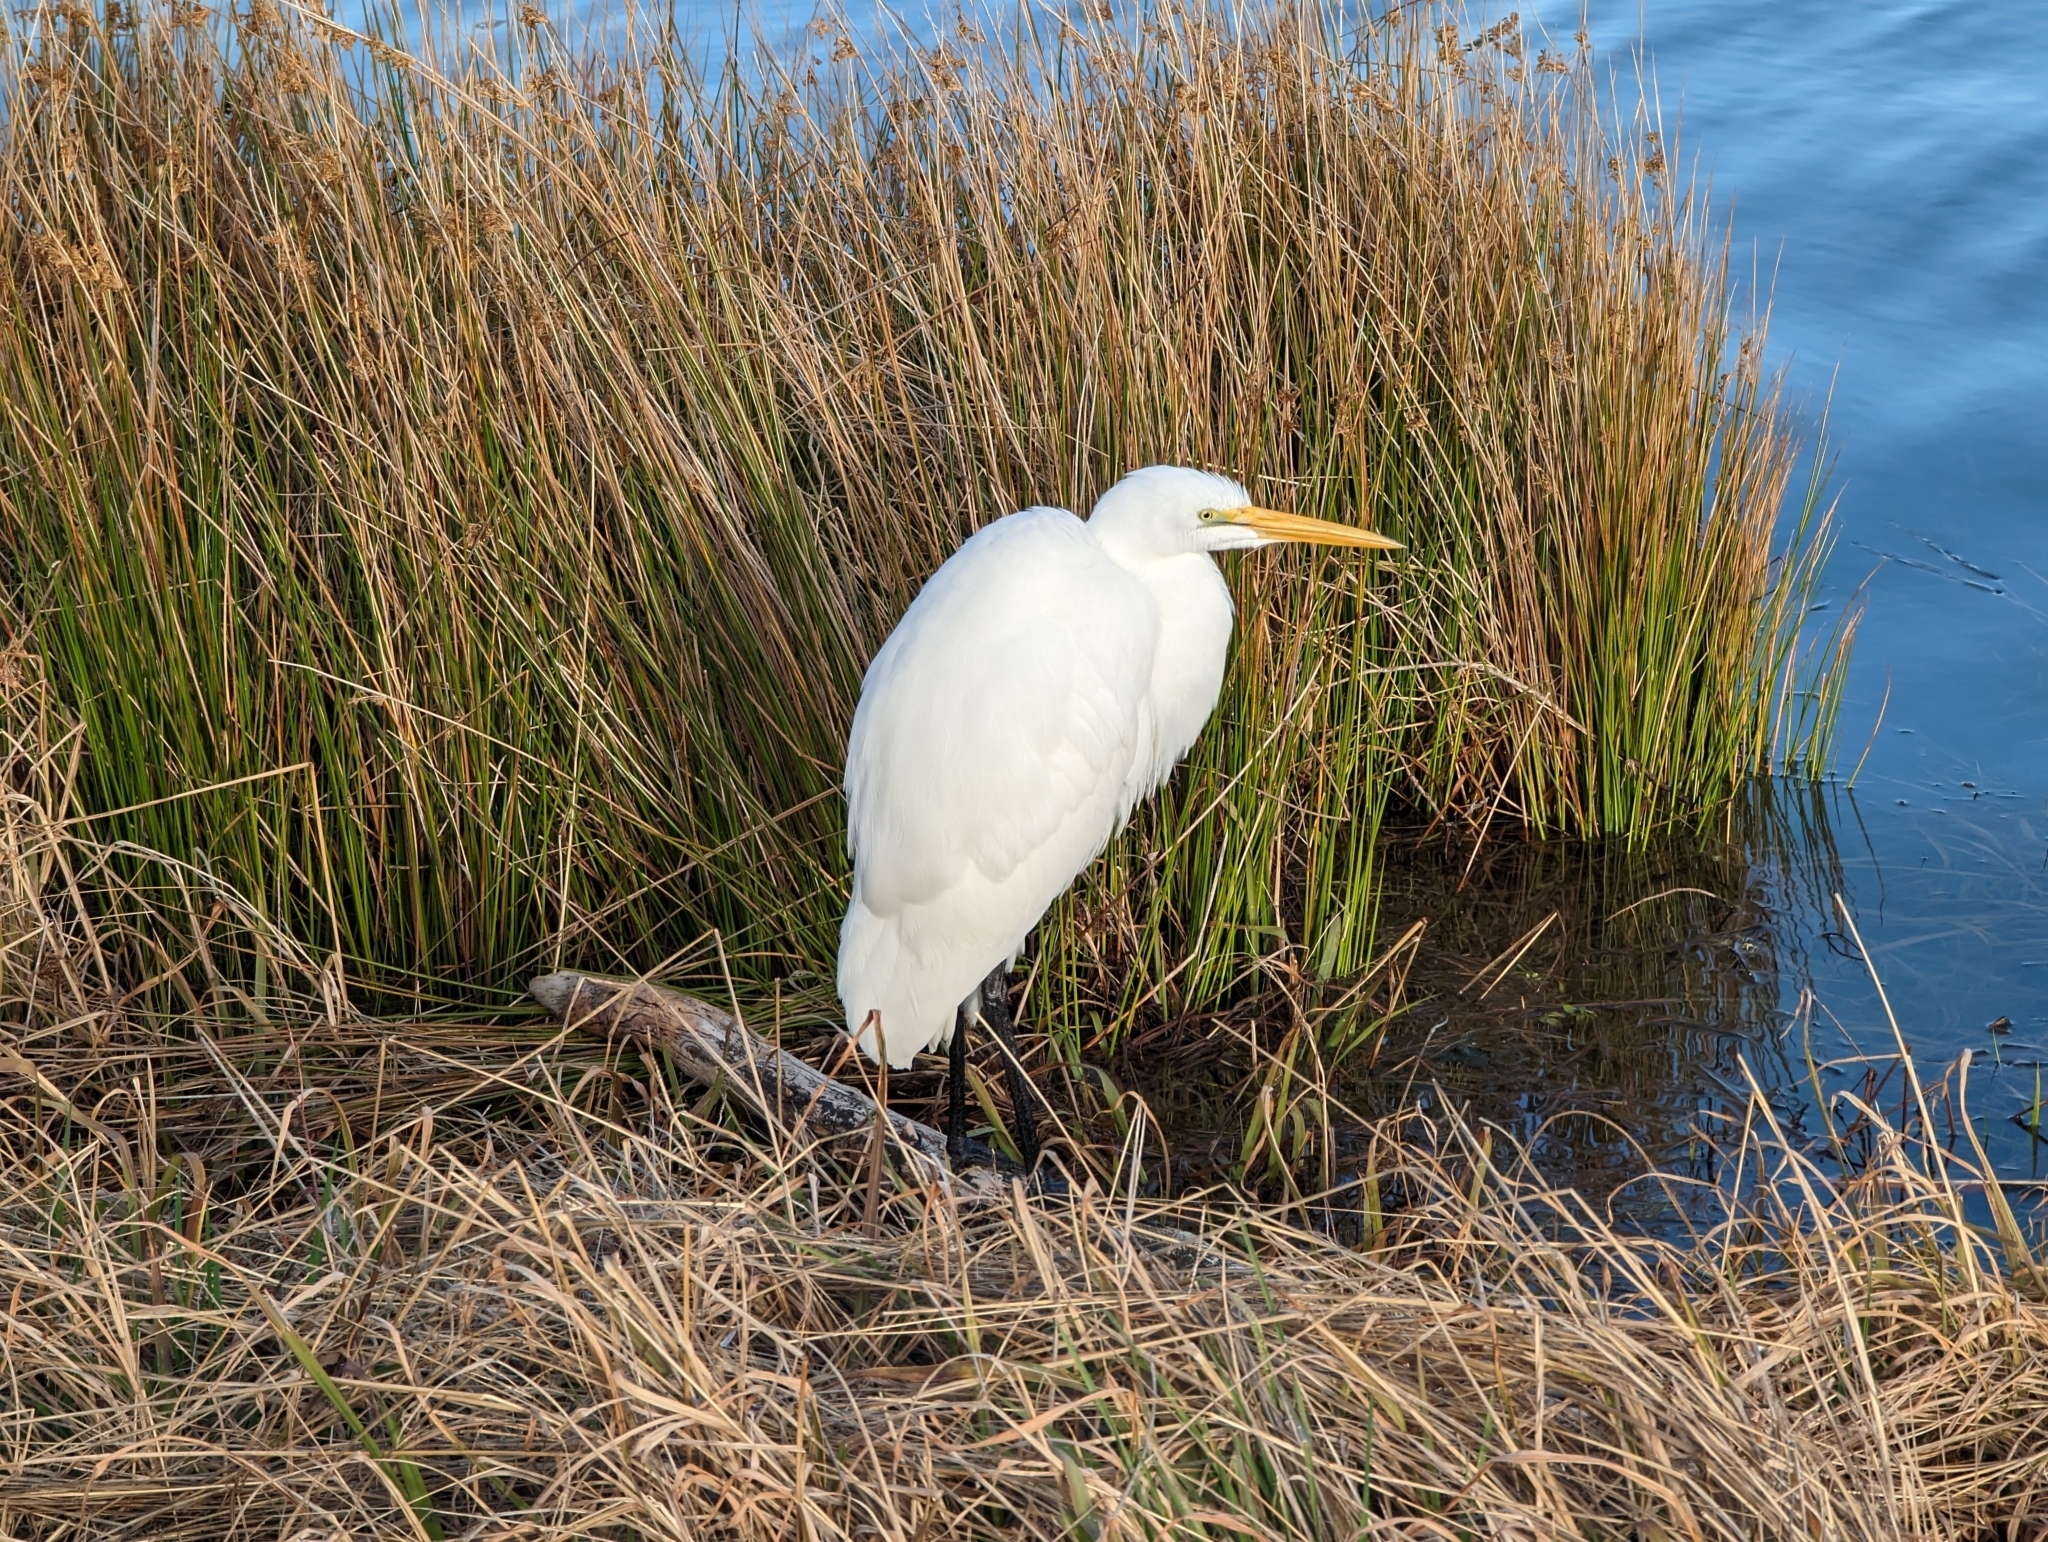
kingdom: Animalia
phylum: Chordata
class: Aves
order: Pelecaniformes
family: Ardeidae
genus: Ardea
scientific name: Ardea alba
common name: Great egret
